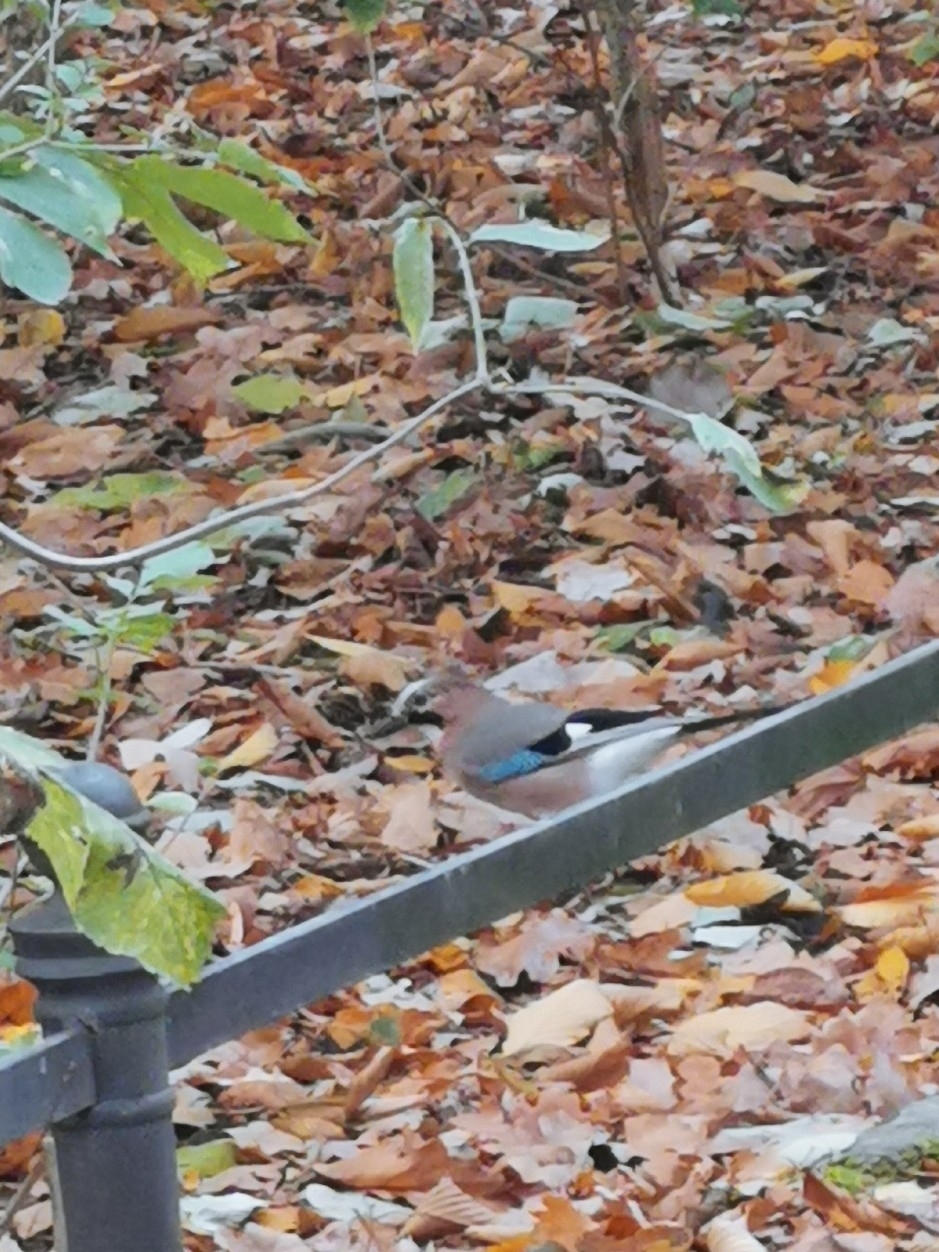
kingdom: Animalia
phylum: Chordata
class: Aves
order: Passeriformes
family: Corvidae
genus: Garrulus
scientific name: Garrulus glandarius
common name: Eurasian jay
